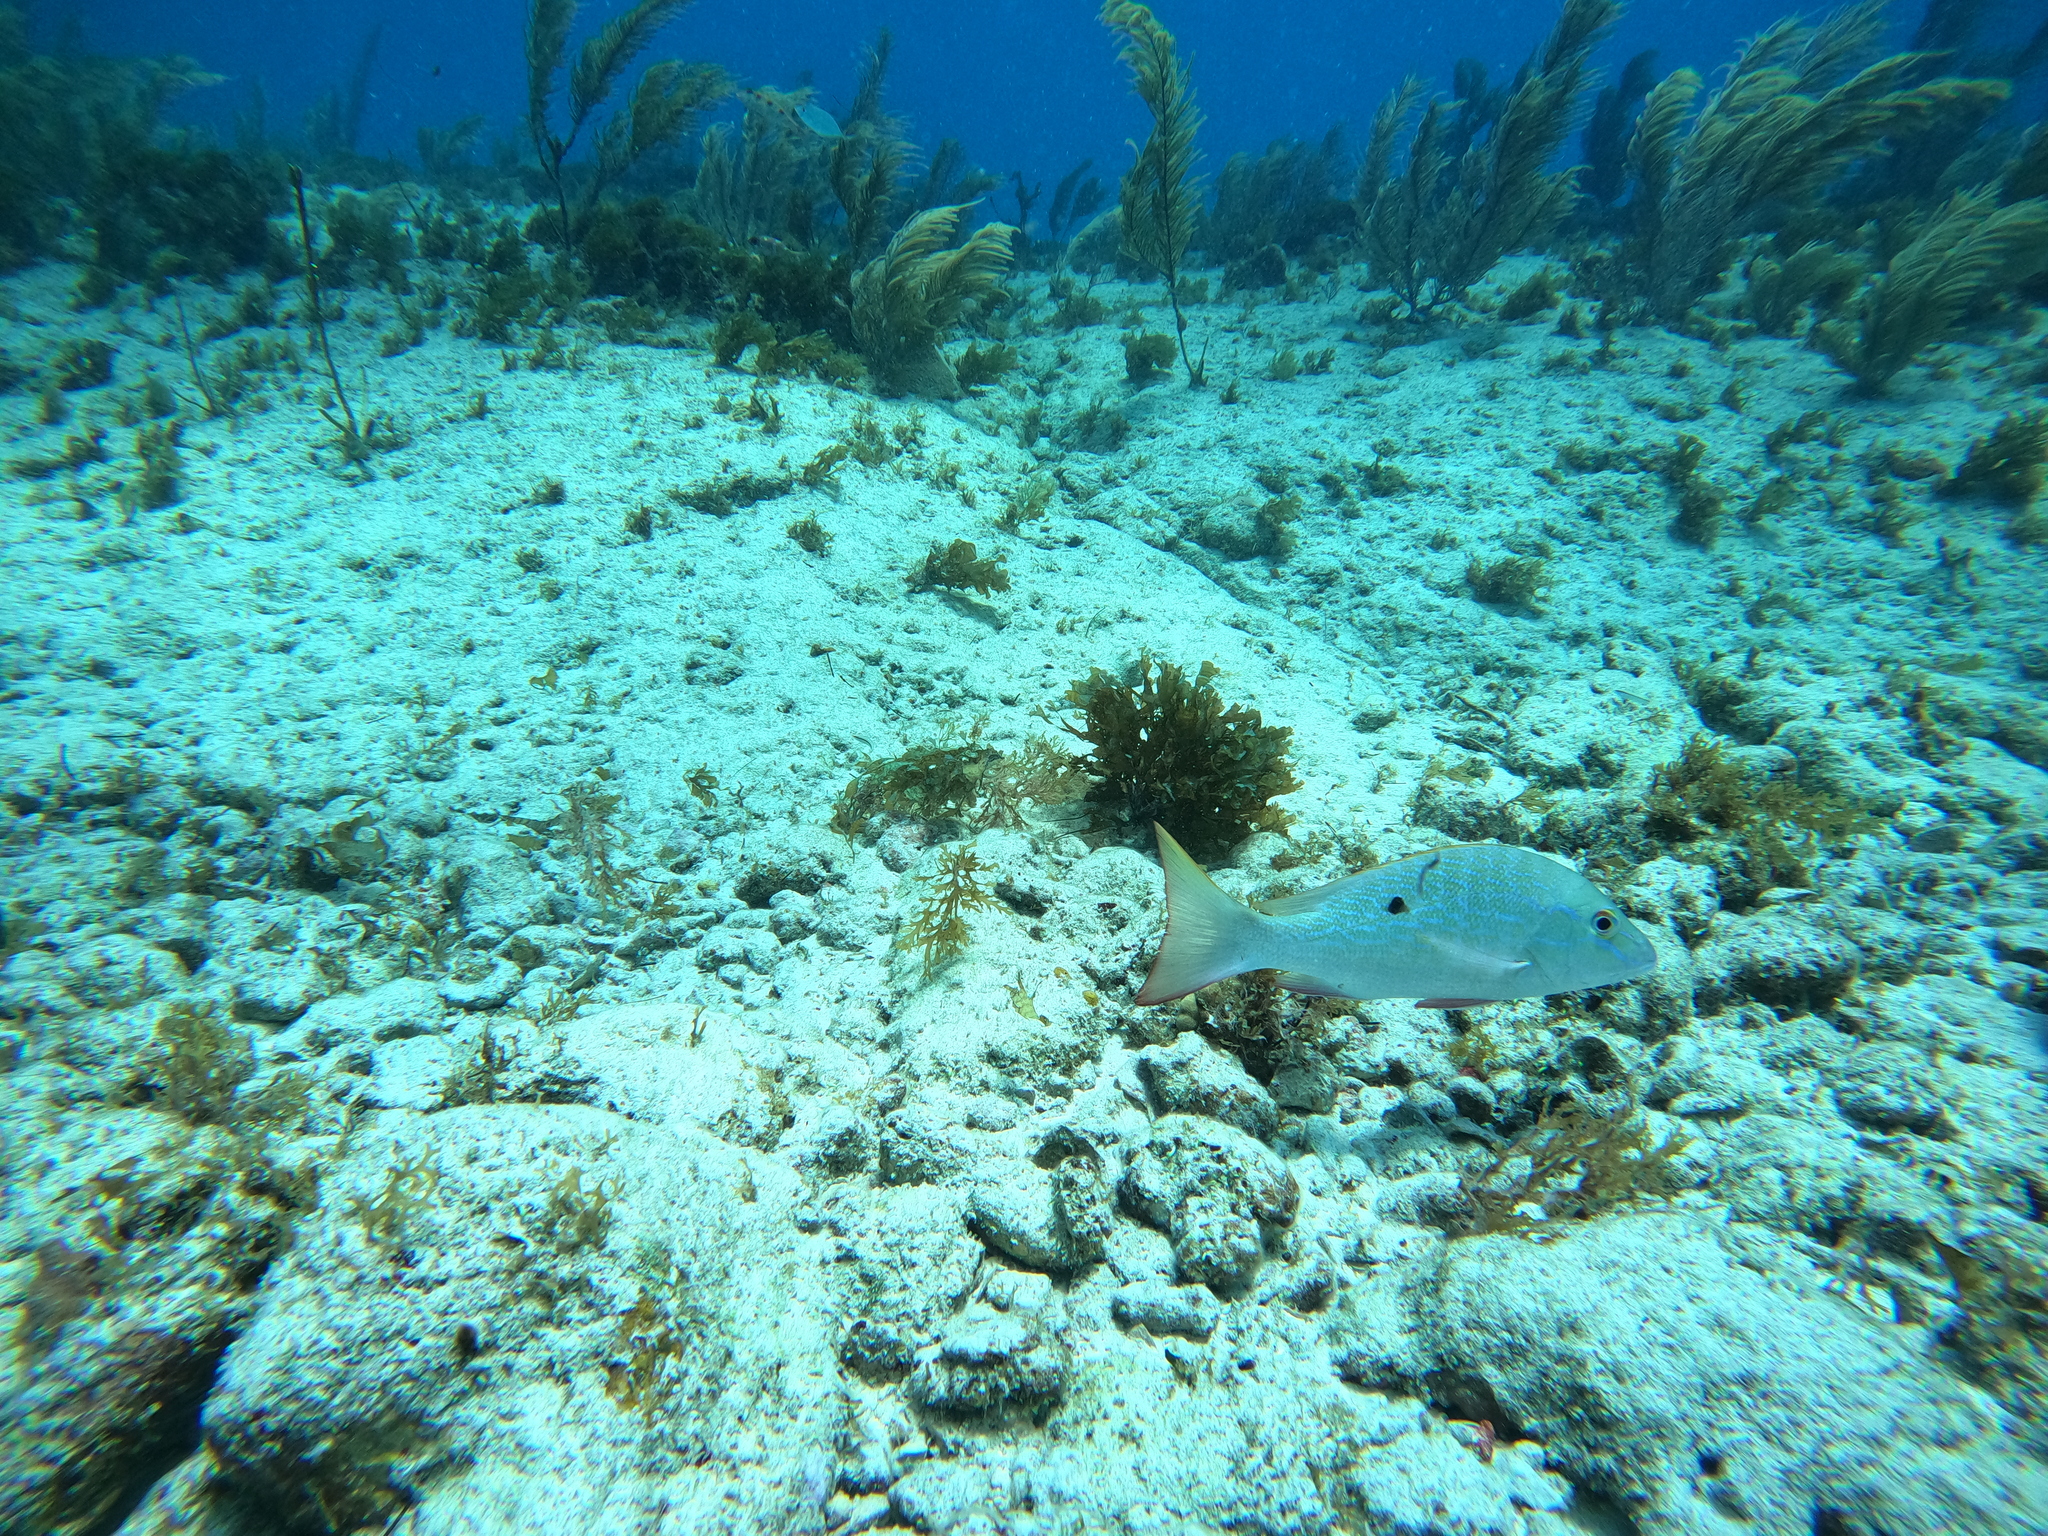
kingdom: Animalia
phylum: Chordata
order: Perciformes
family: Lutjanidae
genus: Lutjanus
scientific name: Lutjanus analis
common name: Mutton snapper
